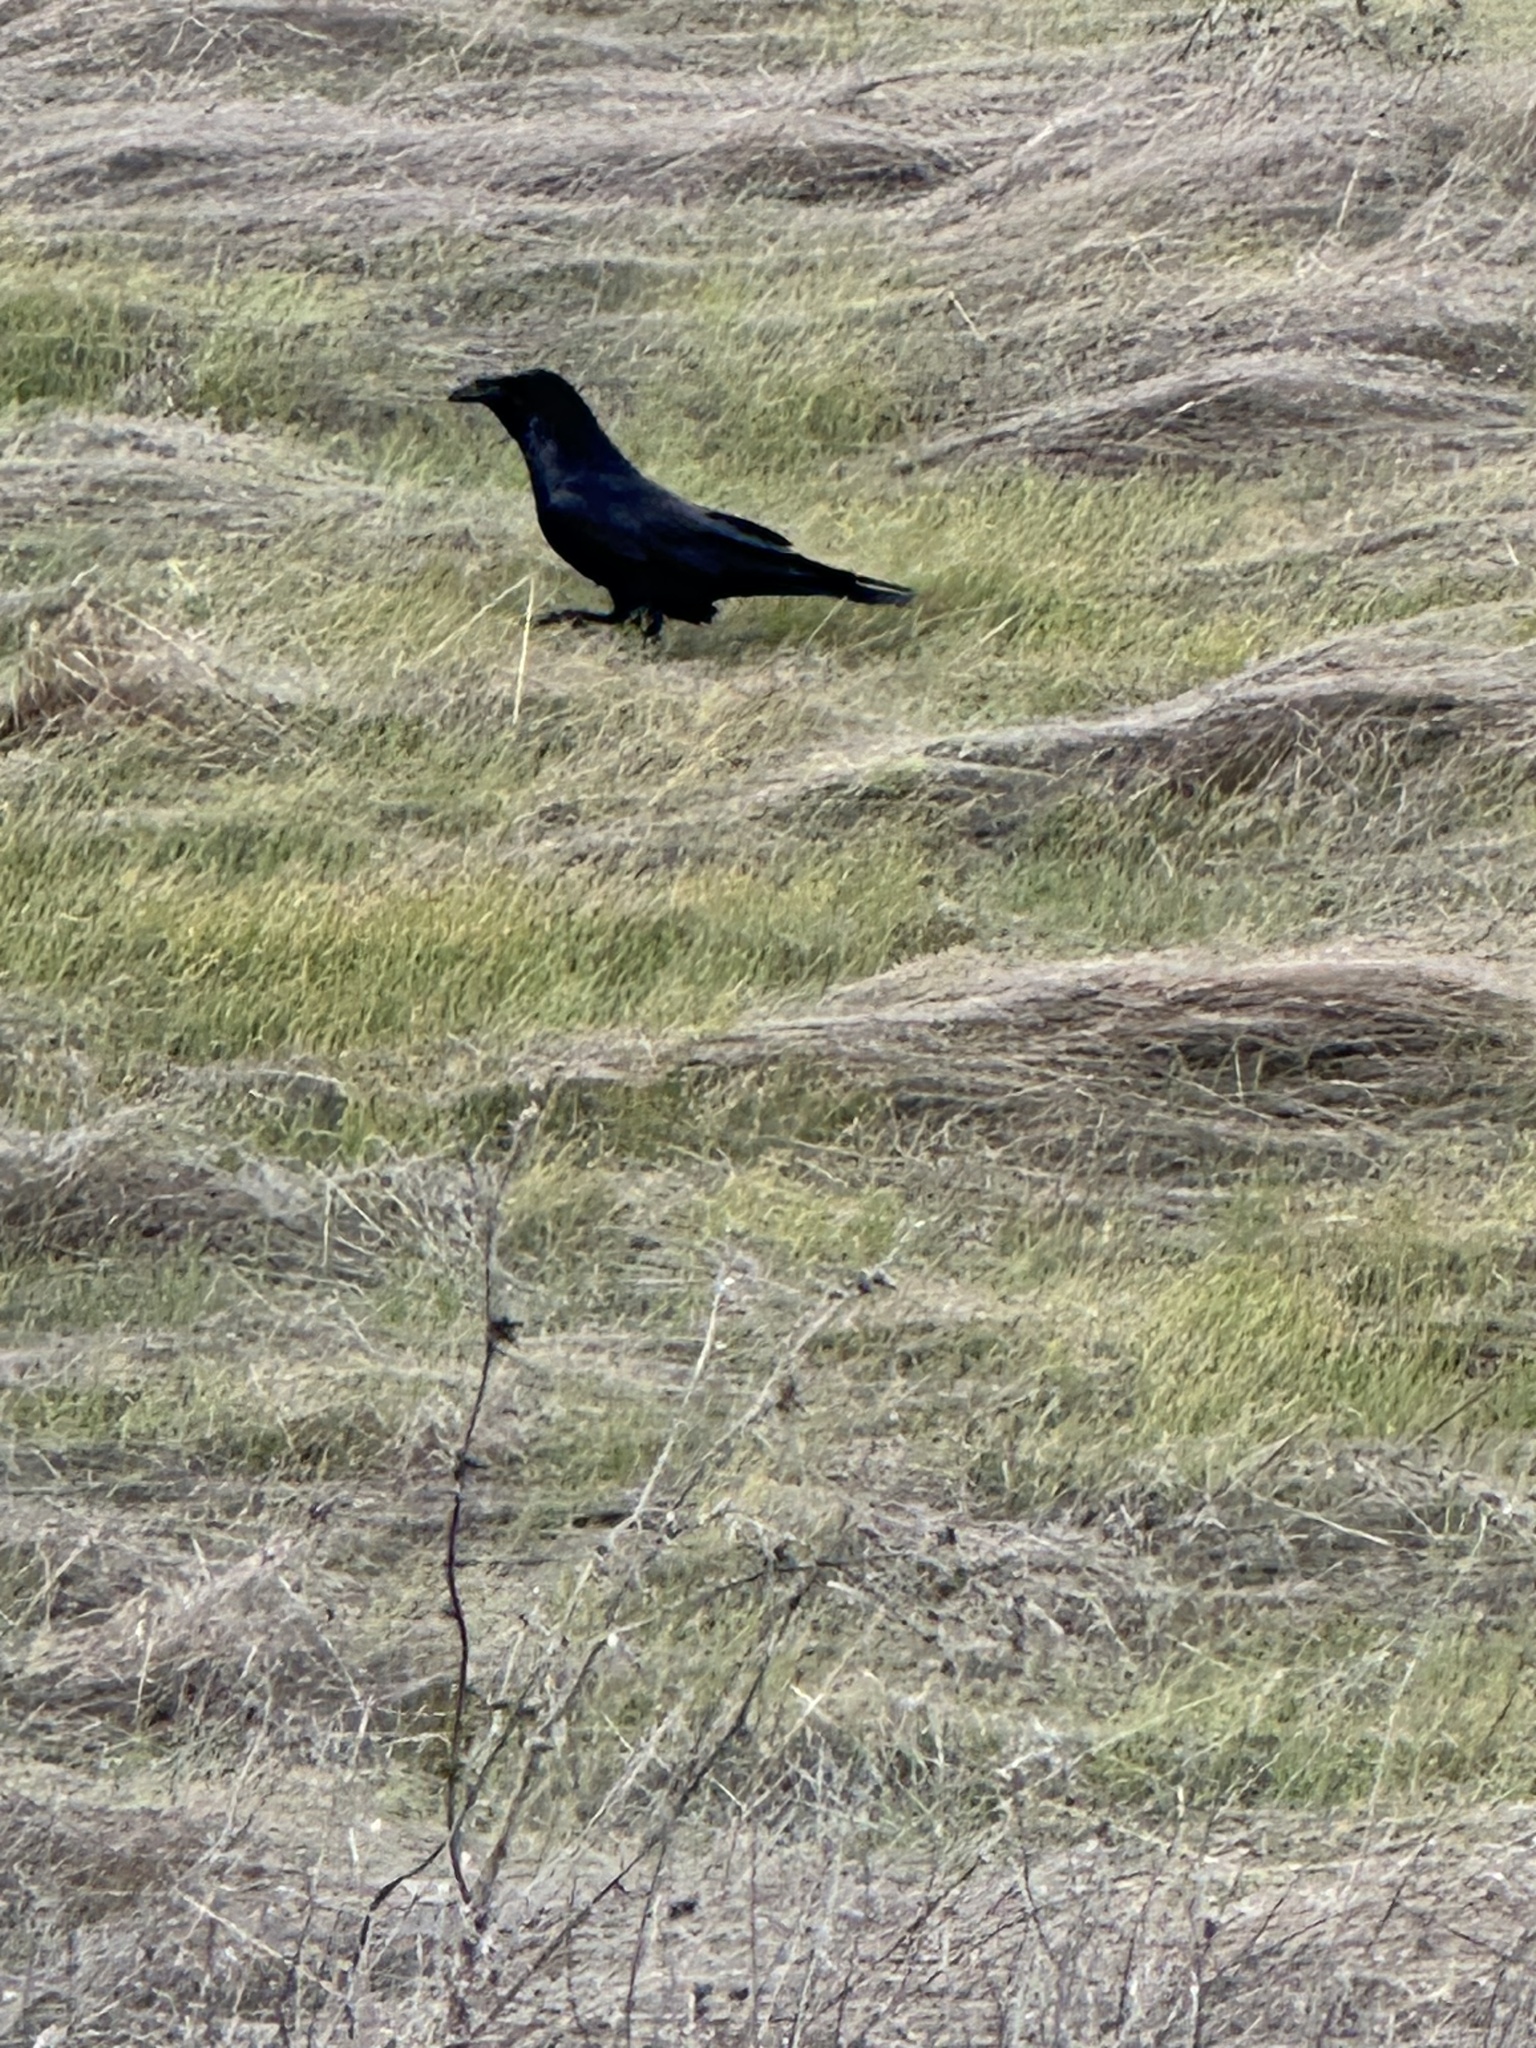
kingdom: Animalia
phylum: Chordata
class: Aves
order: Passeriformes
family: Corvidae
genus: Corvus
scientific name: Corvus corax
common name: Common raven
